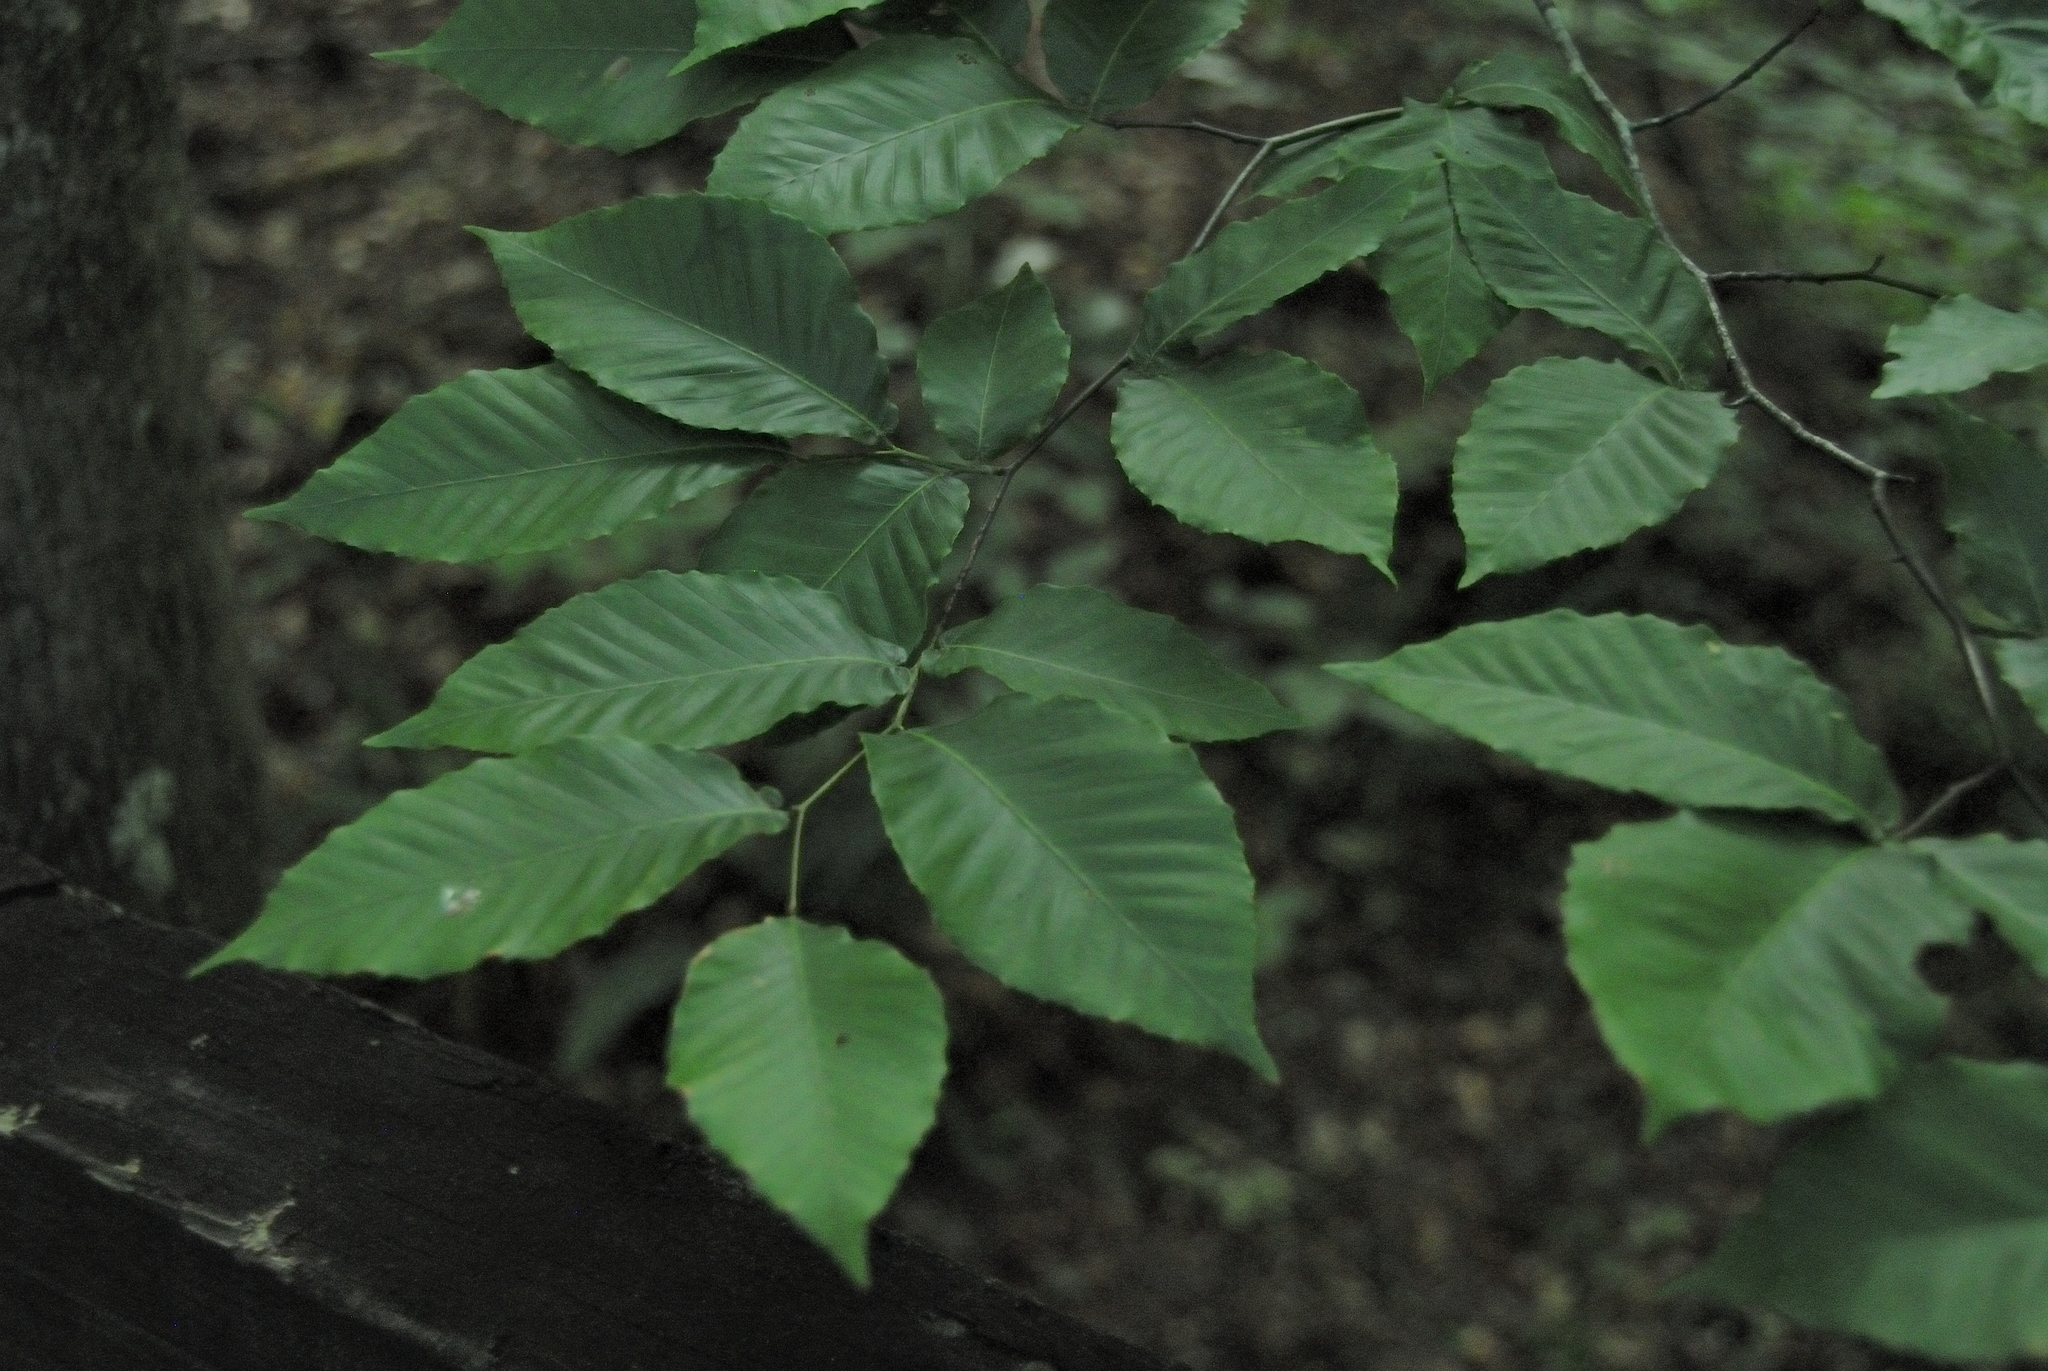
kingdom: Plantae
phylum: Tracheophyta
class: Magnoliopsida
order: Fagales
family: Fagaceae
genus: Fagus
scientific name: Fagus grandifolia
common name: American beech
